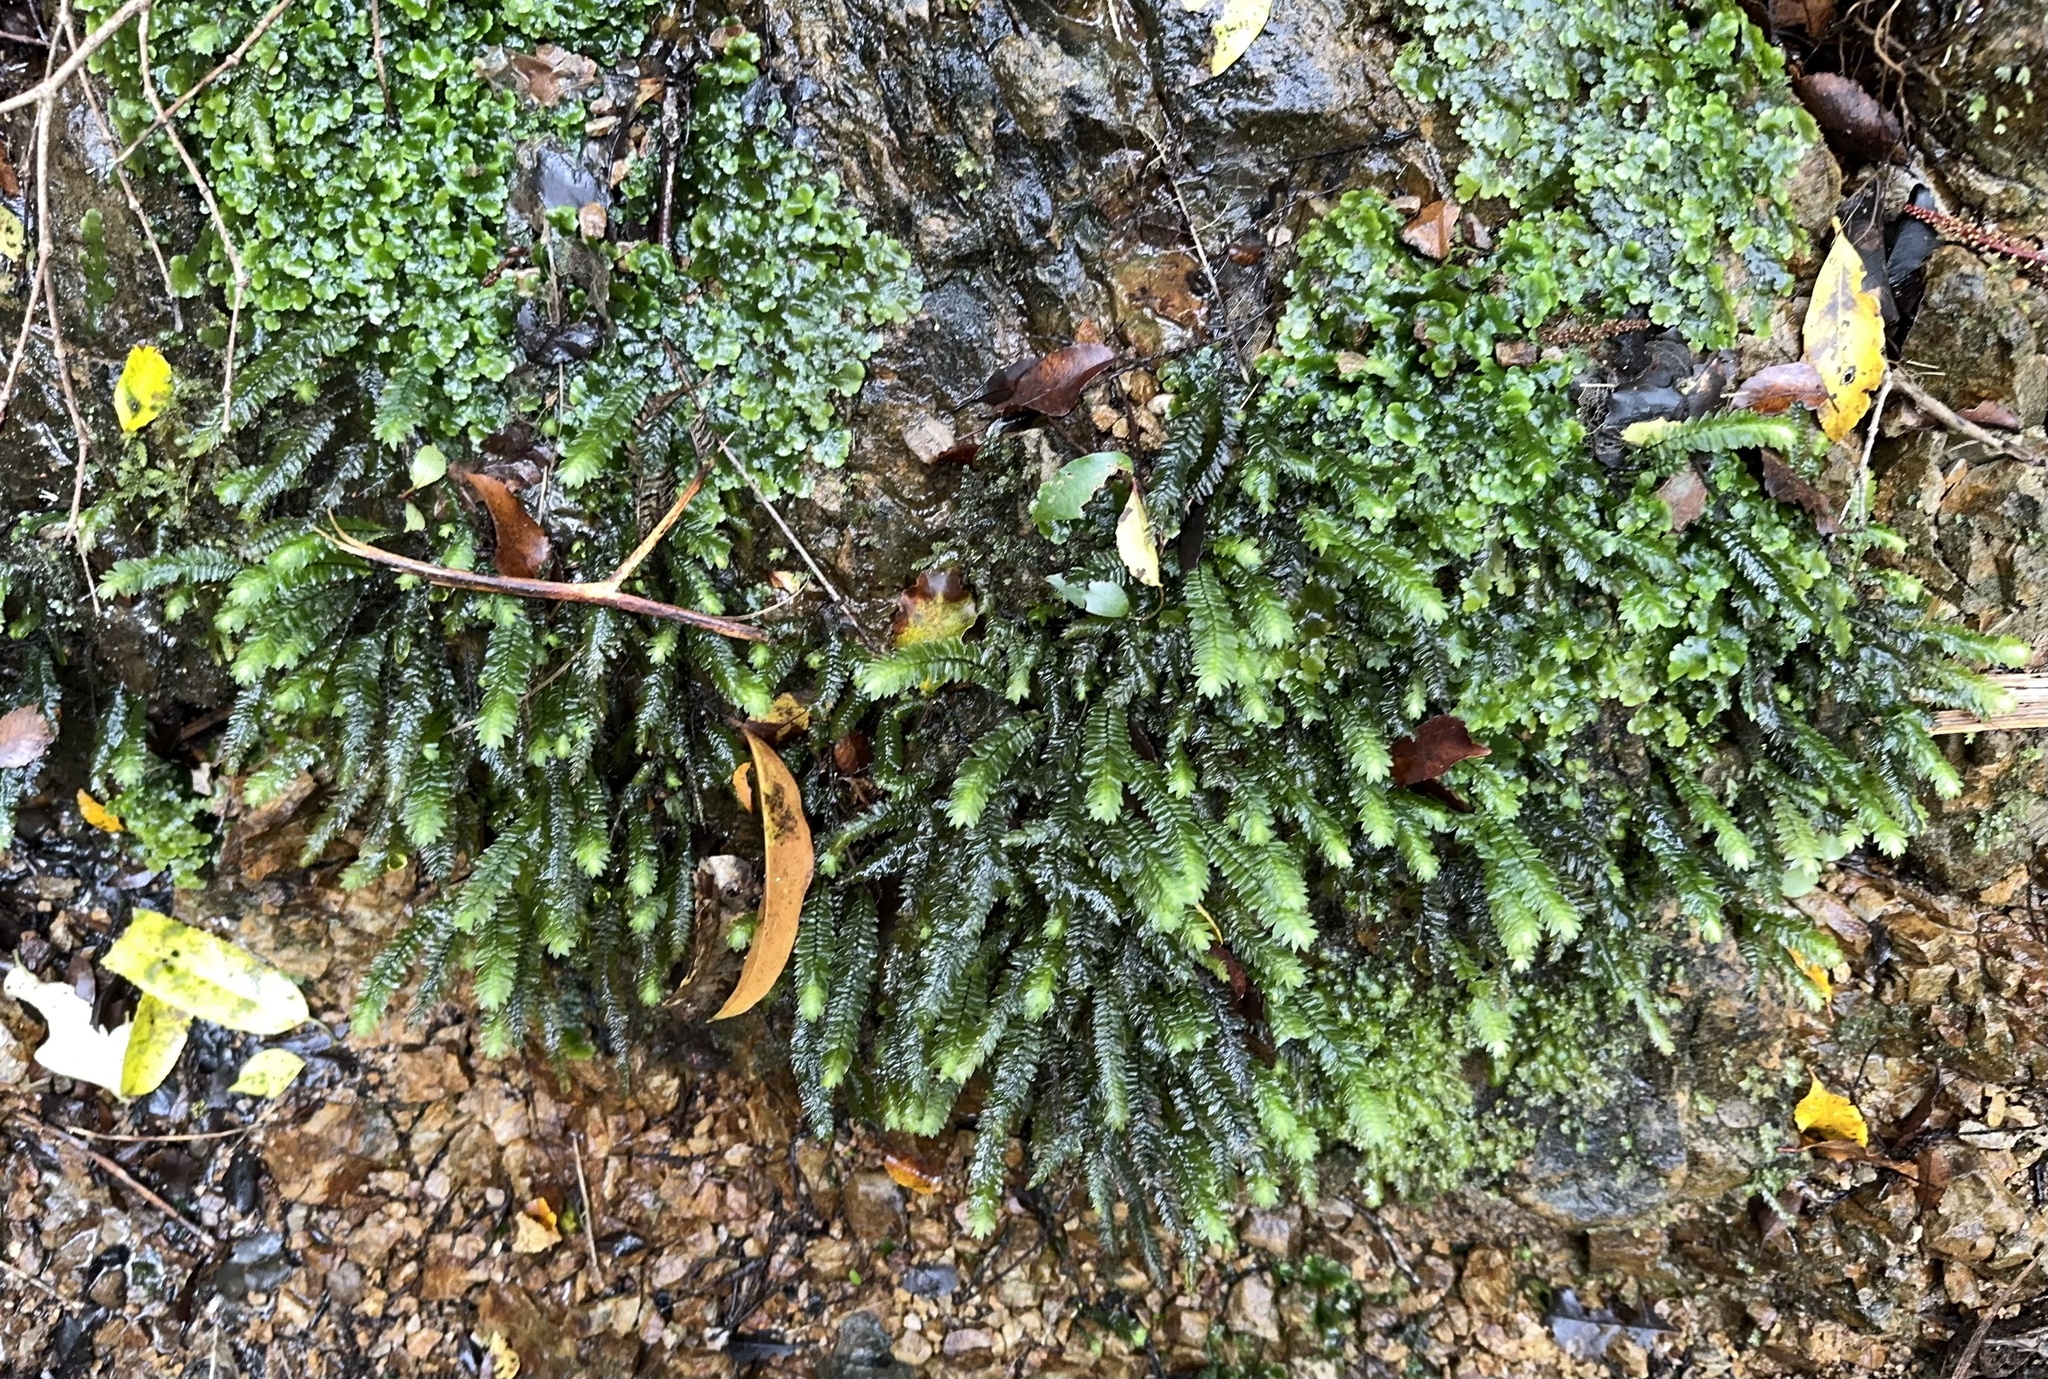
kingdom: Plantae
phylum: Bryophyta
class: Bryopsida
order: Hypopterygiales
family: Hypopterygiaceae
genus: Cyathophorum
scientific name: Cyathophorum bulbosum
